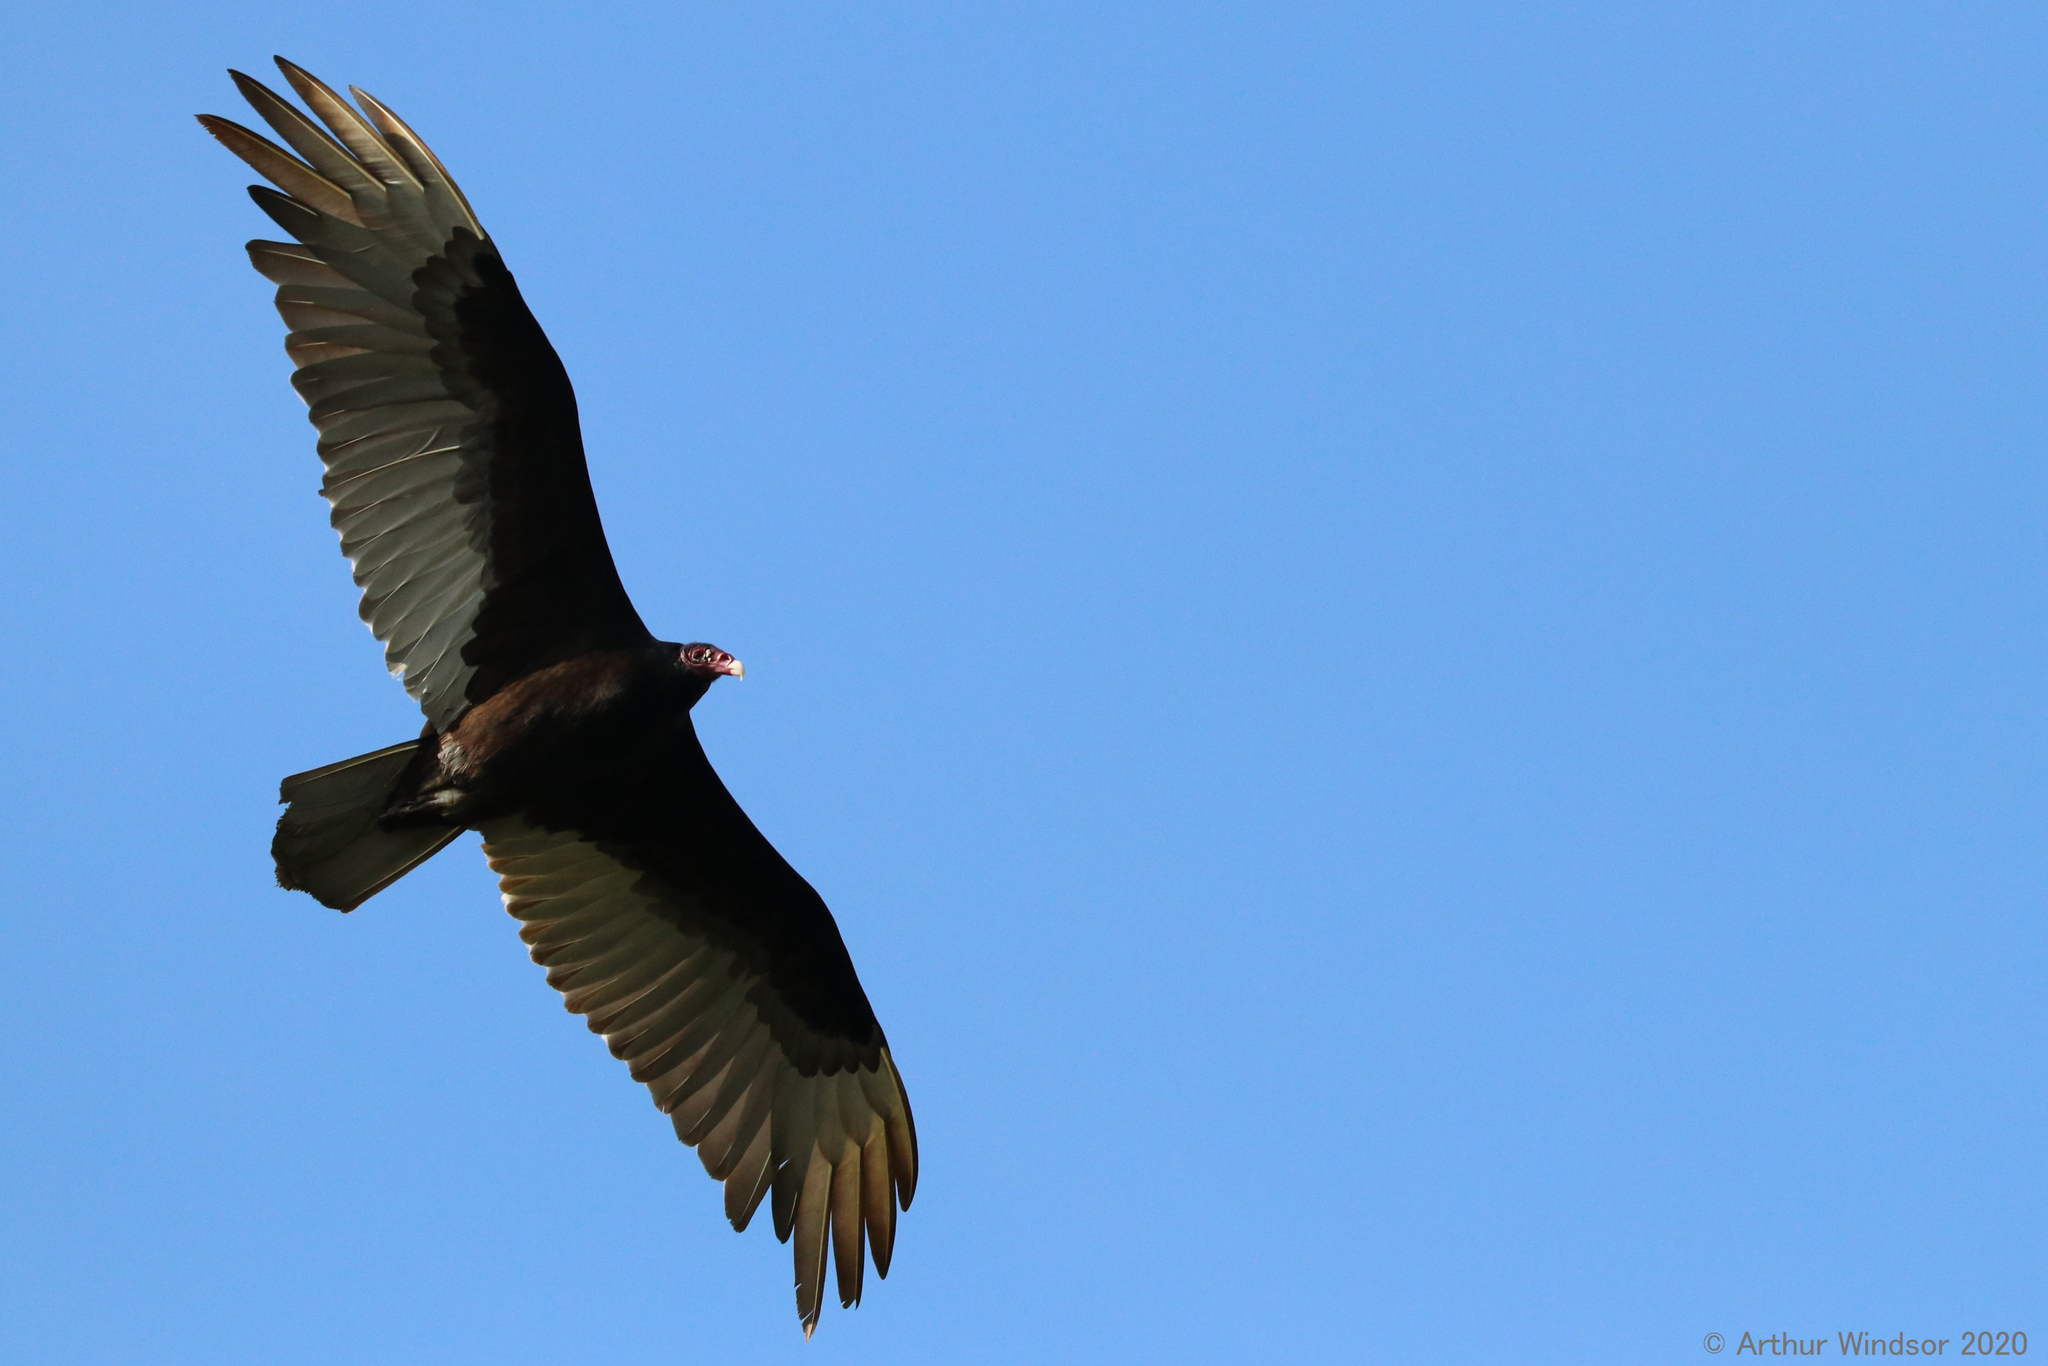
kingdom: Animalia
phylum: Chordata
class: Aves
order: Accipitriformes
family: Cathartidae
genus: Cathartes
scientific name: Cathartes aura
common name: Turkey vulture
